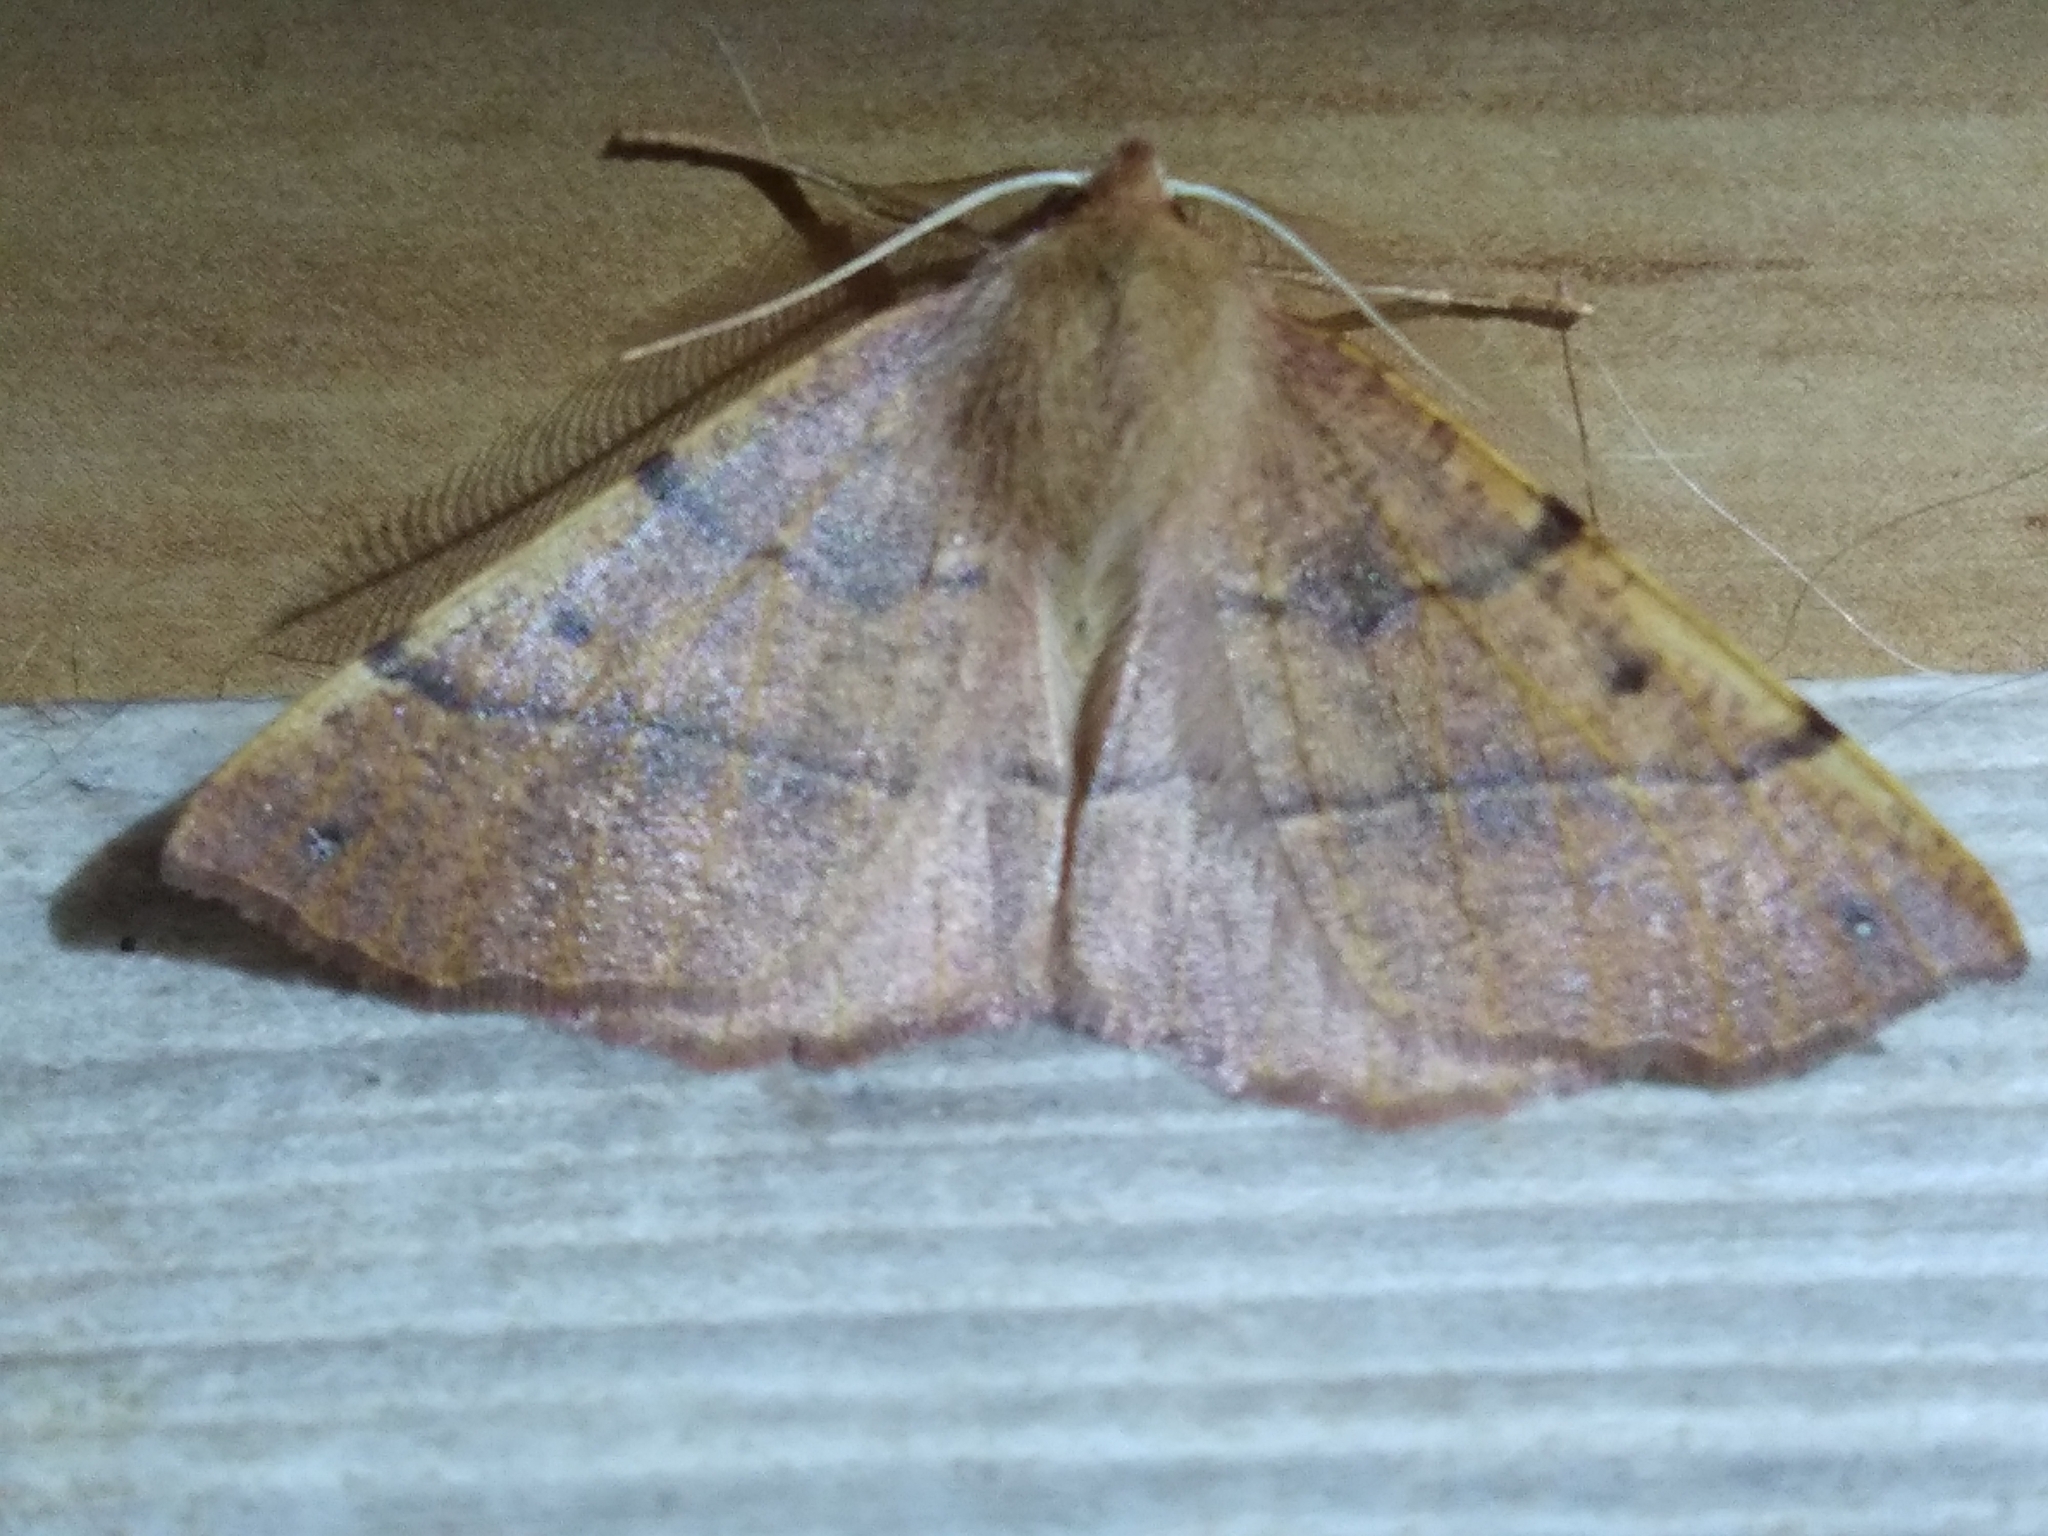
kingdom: Animalia
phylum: Arthropoda
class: Insecta
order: Lepidoptera
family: Geometridae
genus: Colotois
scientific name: Colotois pennaria
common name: Feathered thorn
